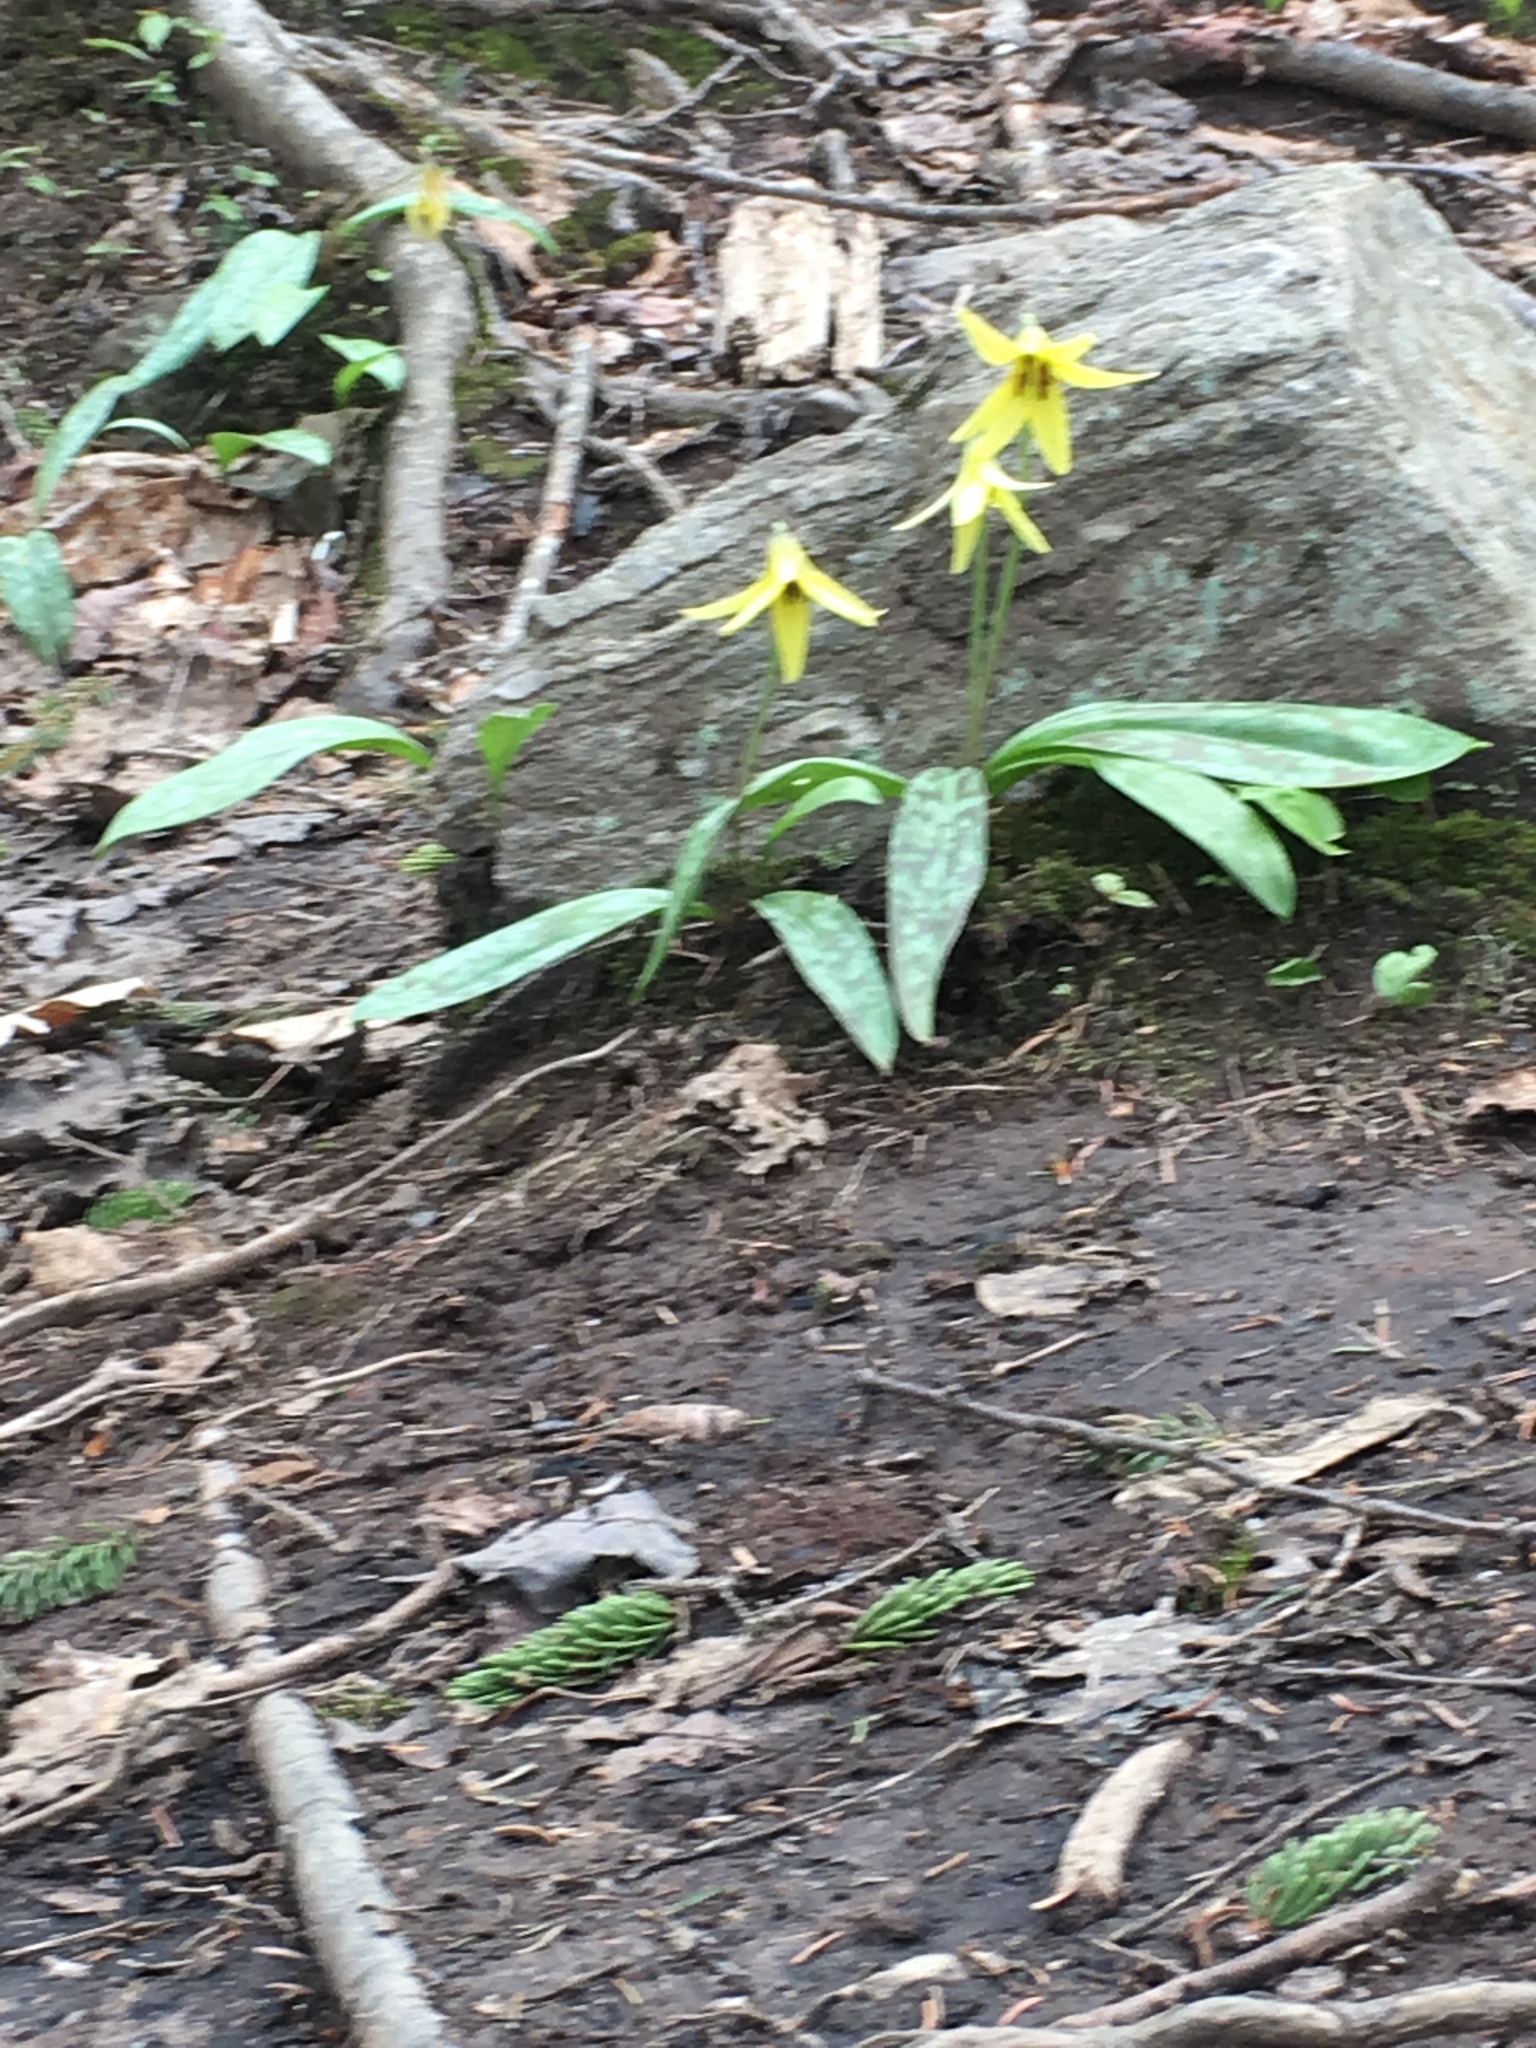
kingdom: Plantae
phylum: Tracheophyta
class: Liliopsida
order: Liliales
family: Liliaceae
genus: Erythronium
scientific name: Erythronium americanum
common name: Yellow adder's-tongue
